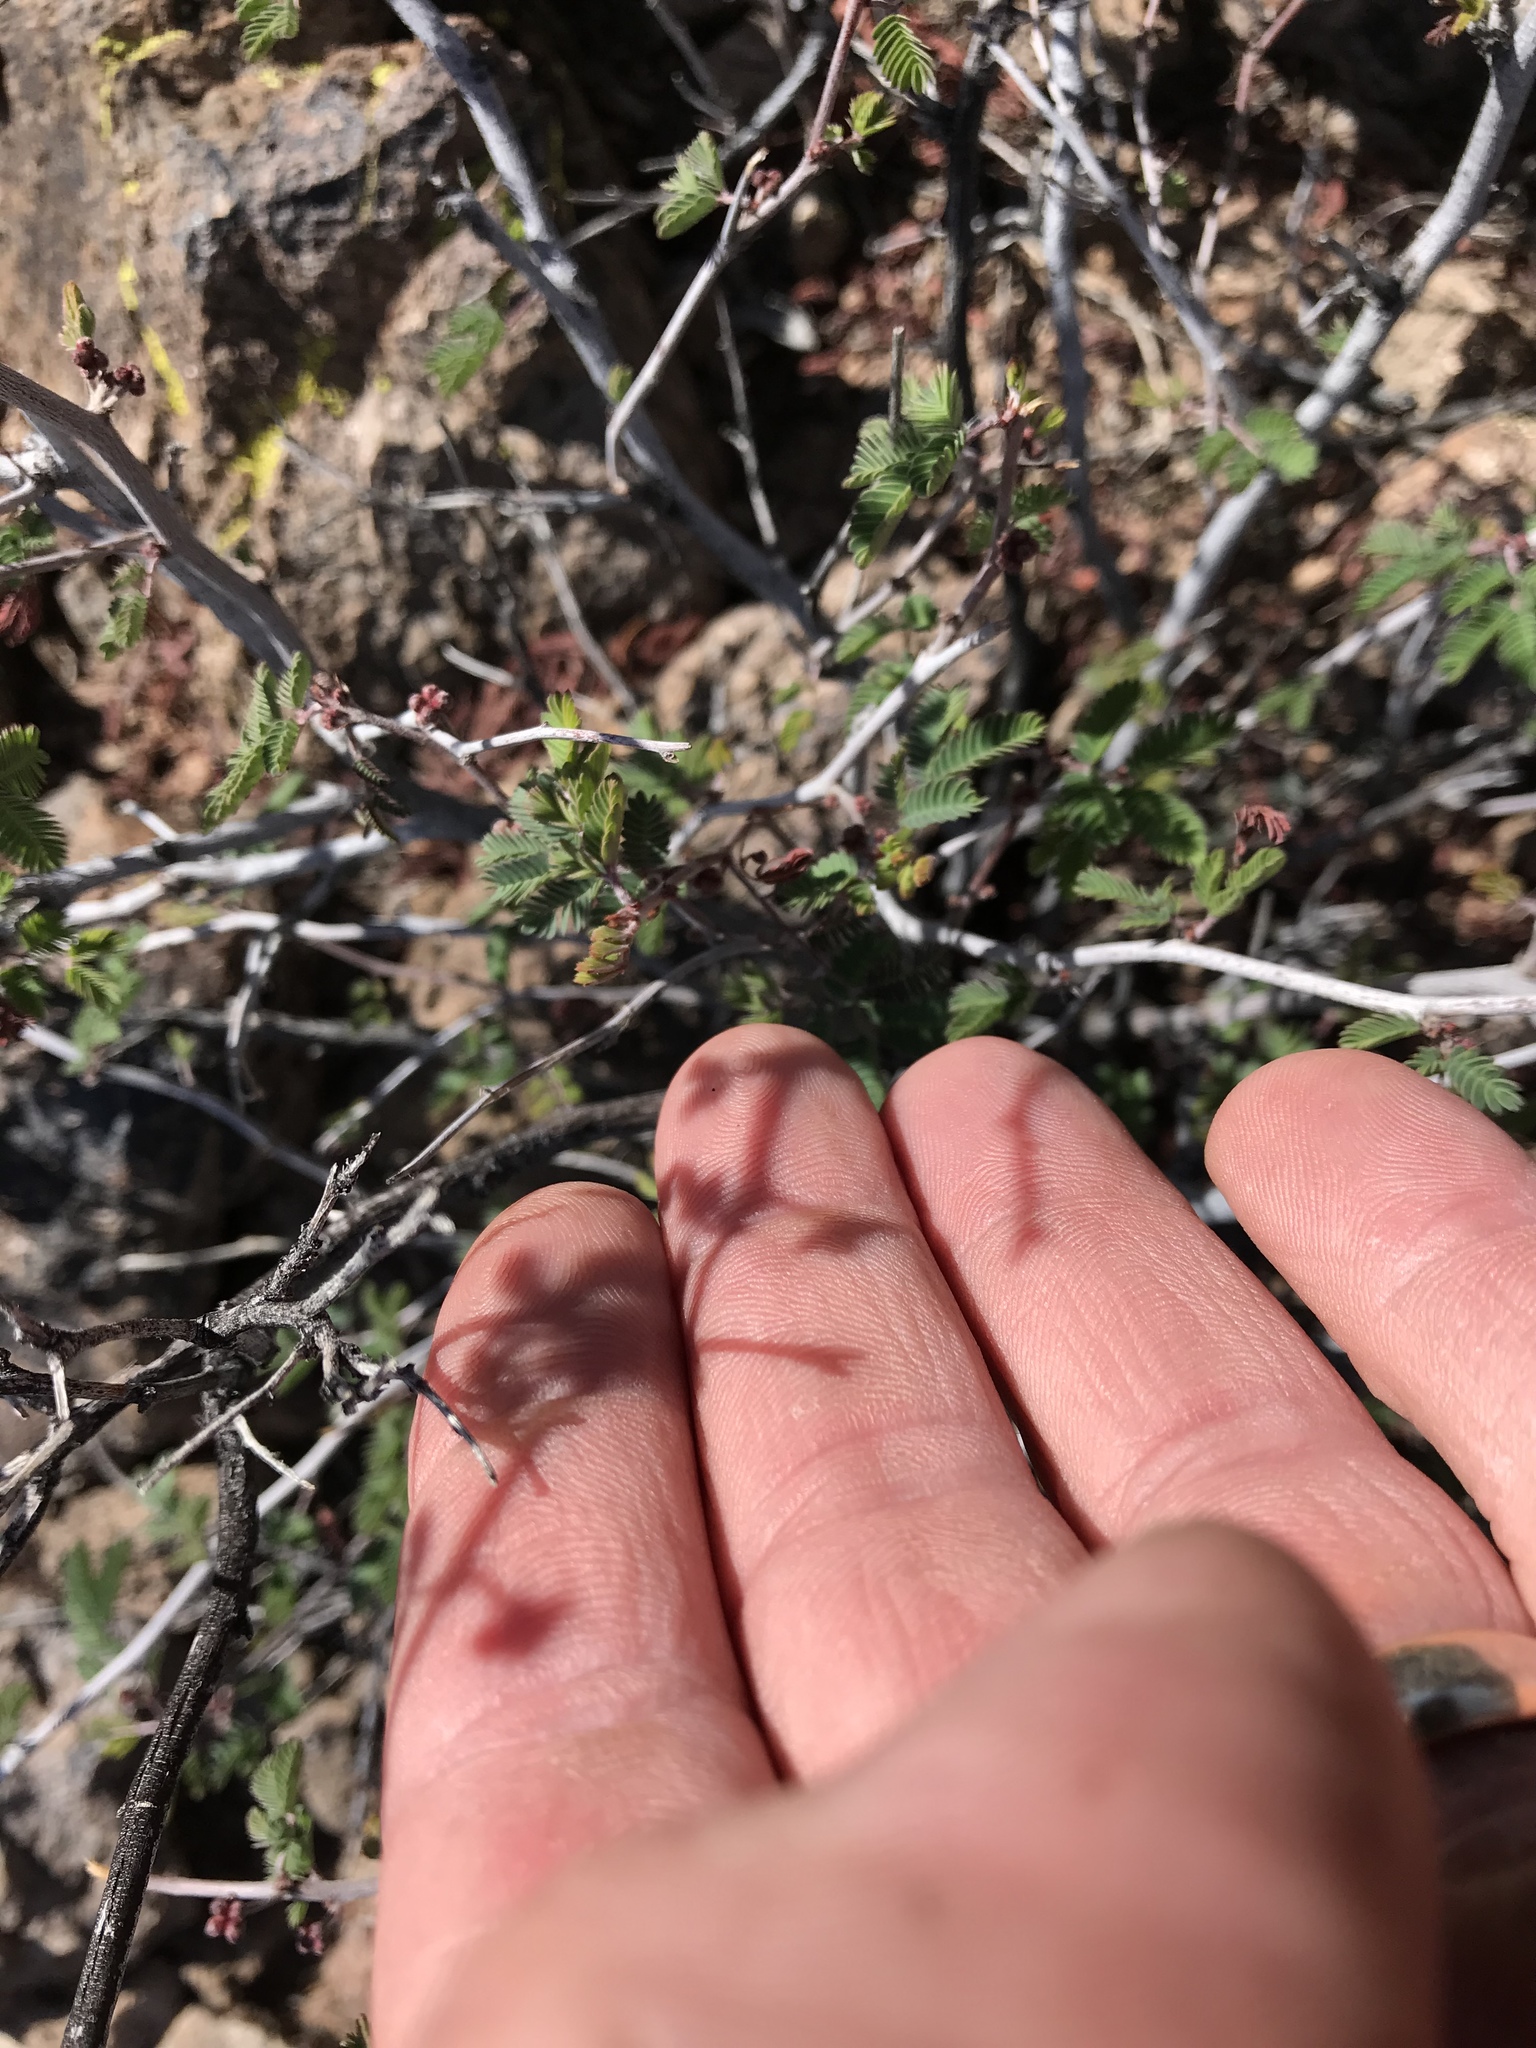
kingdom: Plantae
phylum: Tracheophyta
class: Magnoliopsida
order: Fabales
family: Fabaceae
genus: Calliandra
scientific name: Calliandra eriophylla
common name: Fairy-duster
